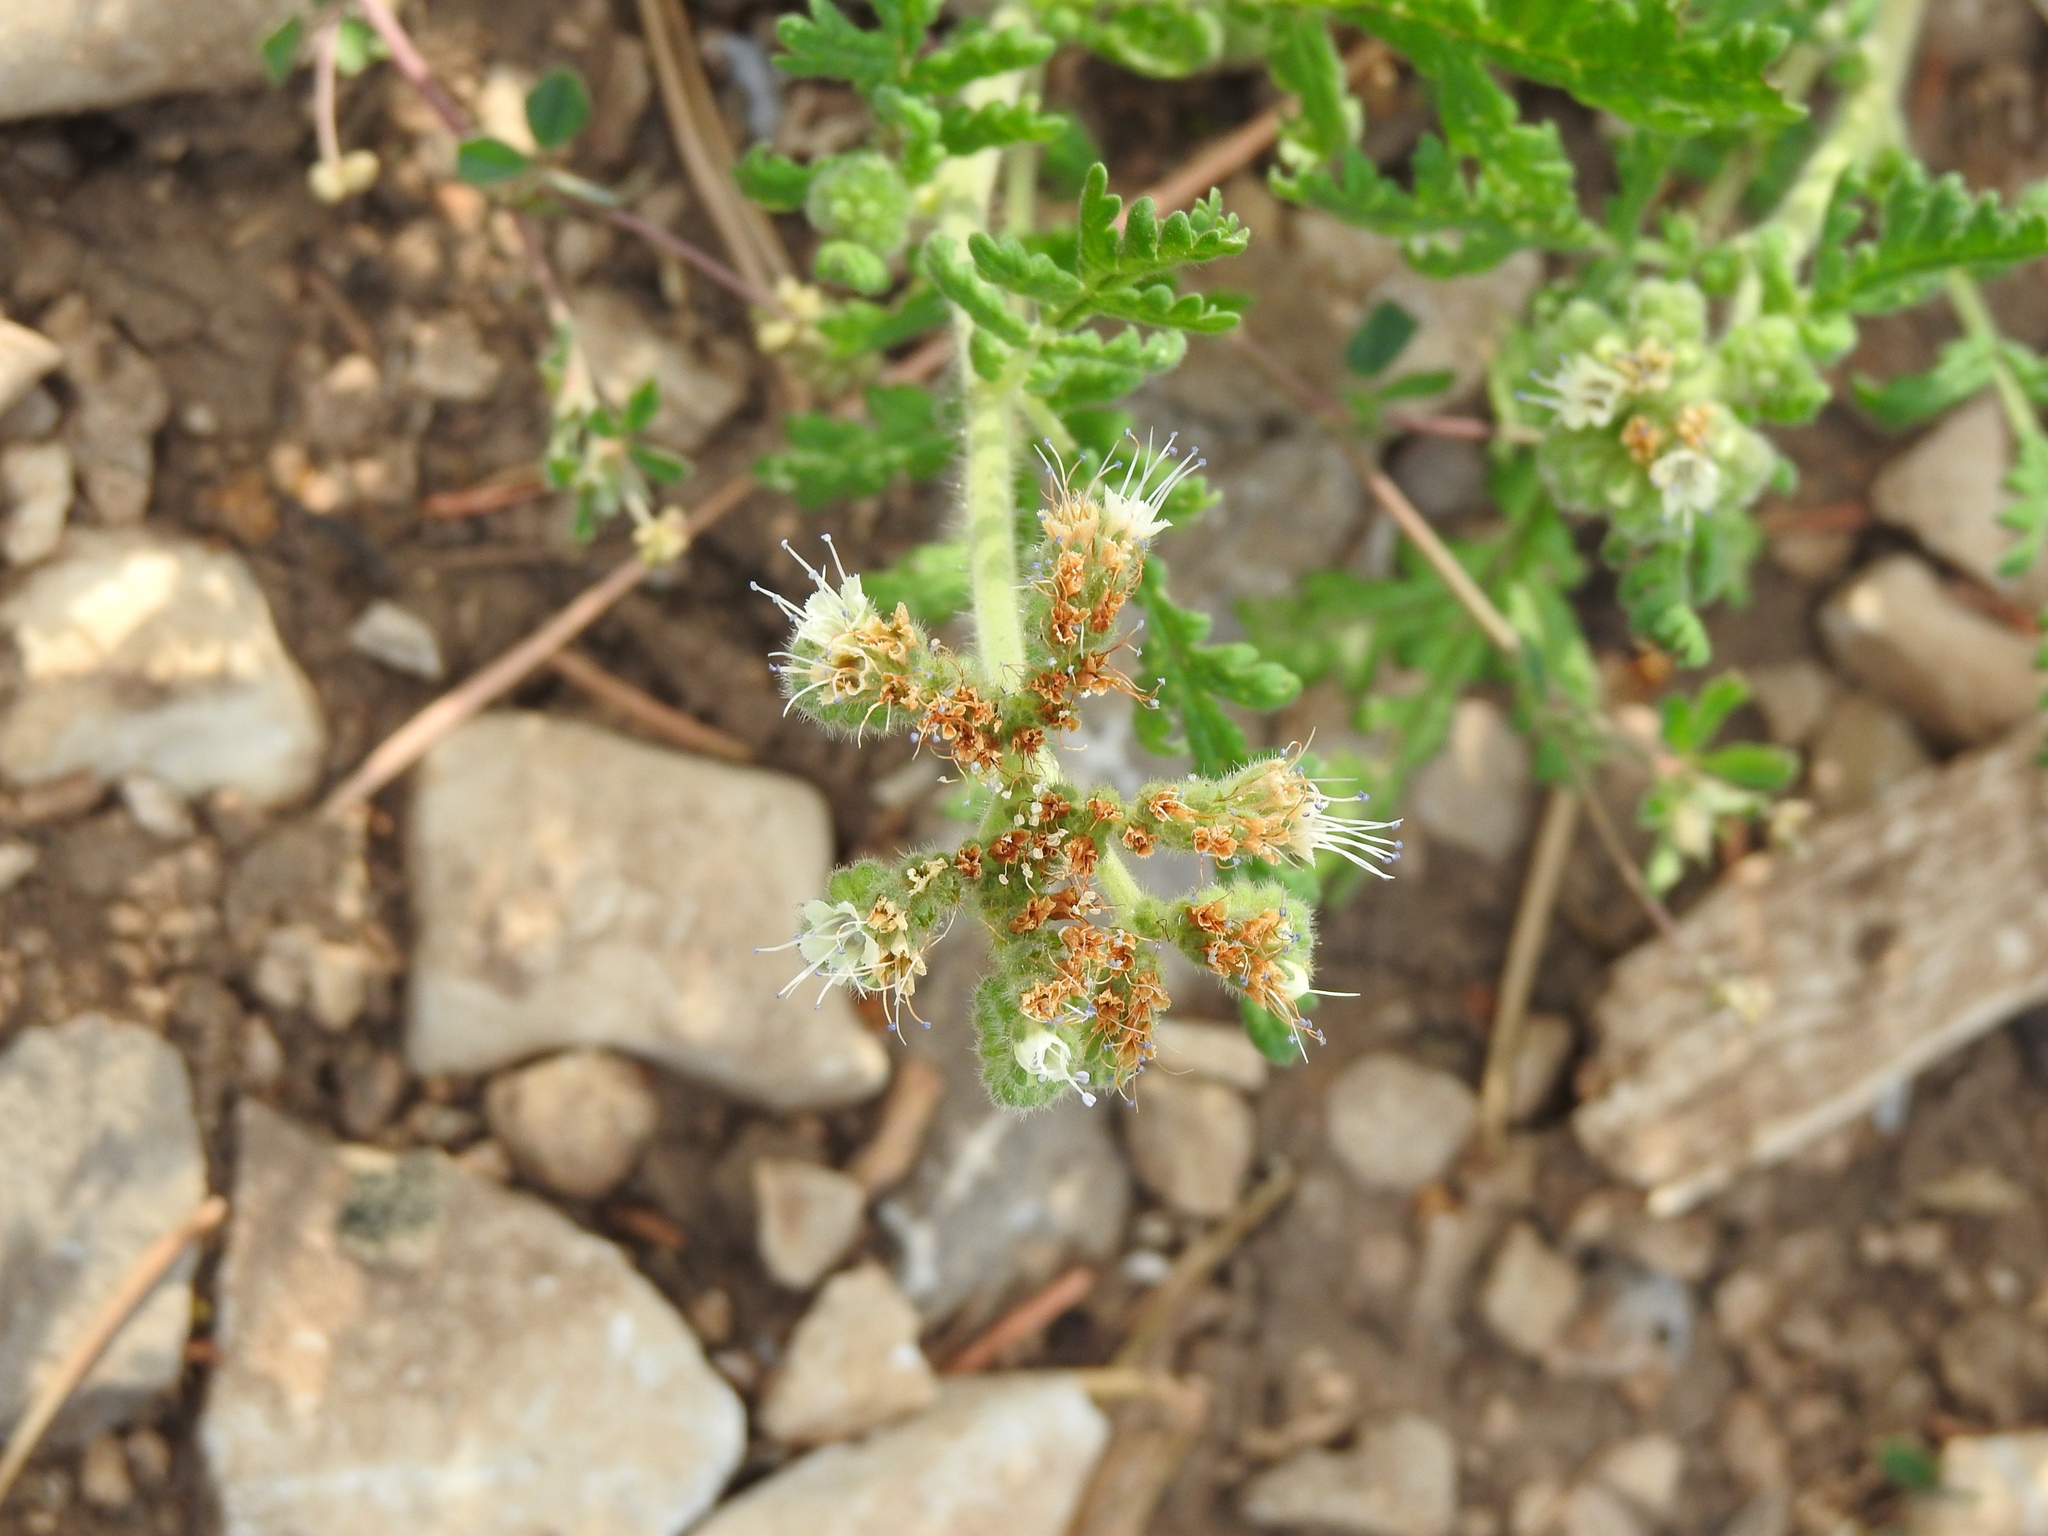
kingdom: Plantae
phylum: Tracheophyta
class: Magnoliopsida
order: Boraginales
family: Hydrophyllaceae
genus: Phacelia
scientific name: Phacelia alba
